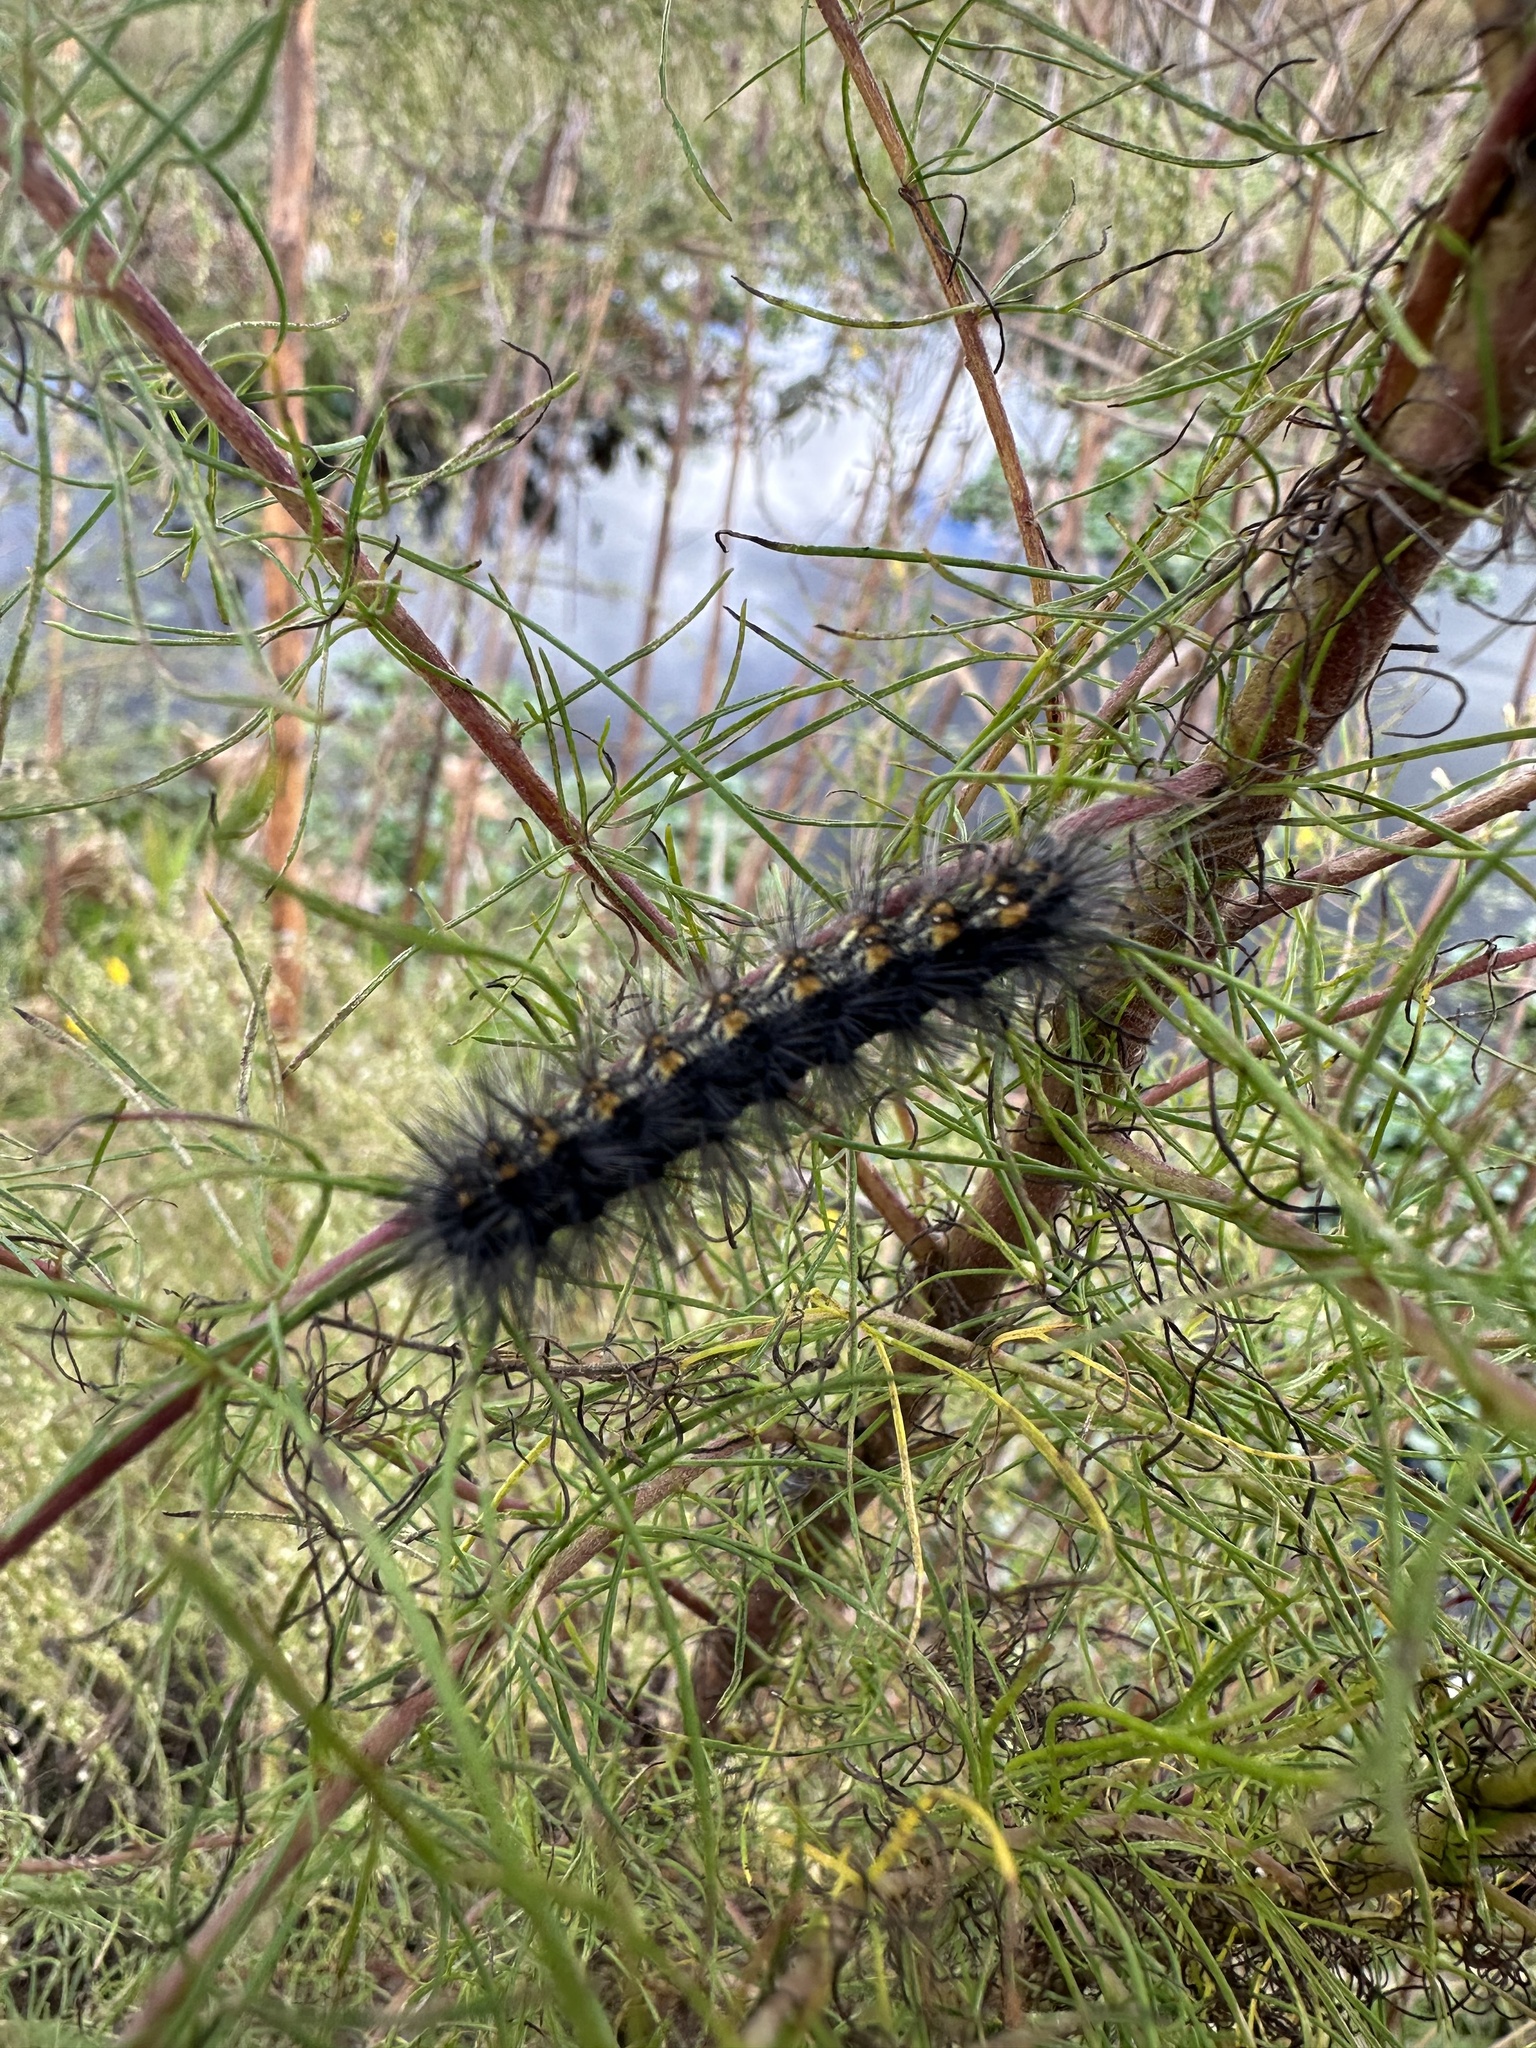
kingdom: Animalia
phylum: Arthropoda
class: Insecta
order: Lepidoptera
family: Erebidae
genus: Estigmene
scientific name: Estigmene acrea
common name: Salt marsh moth
